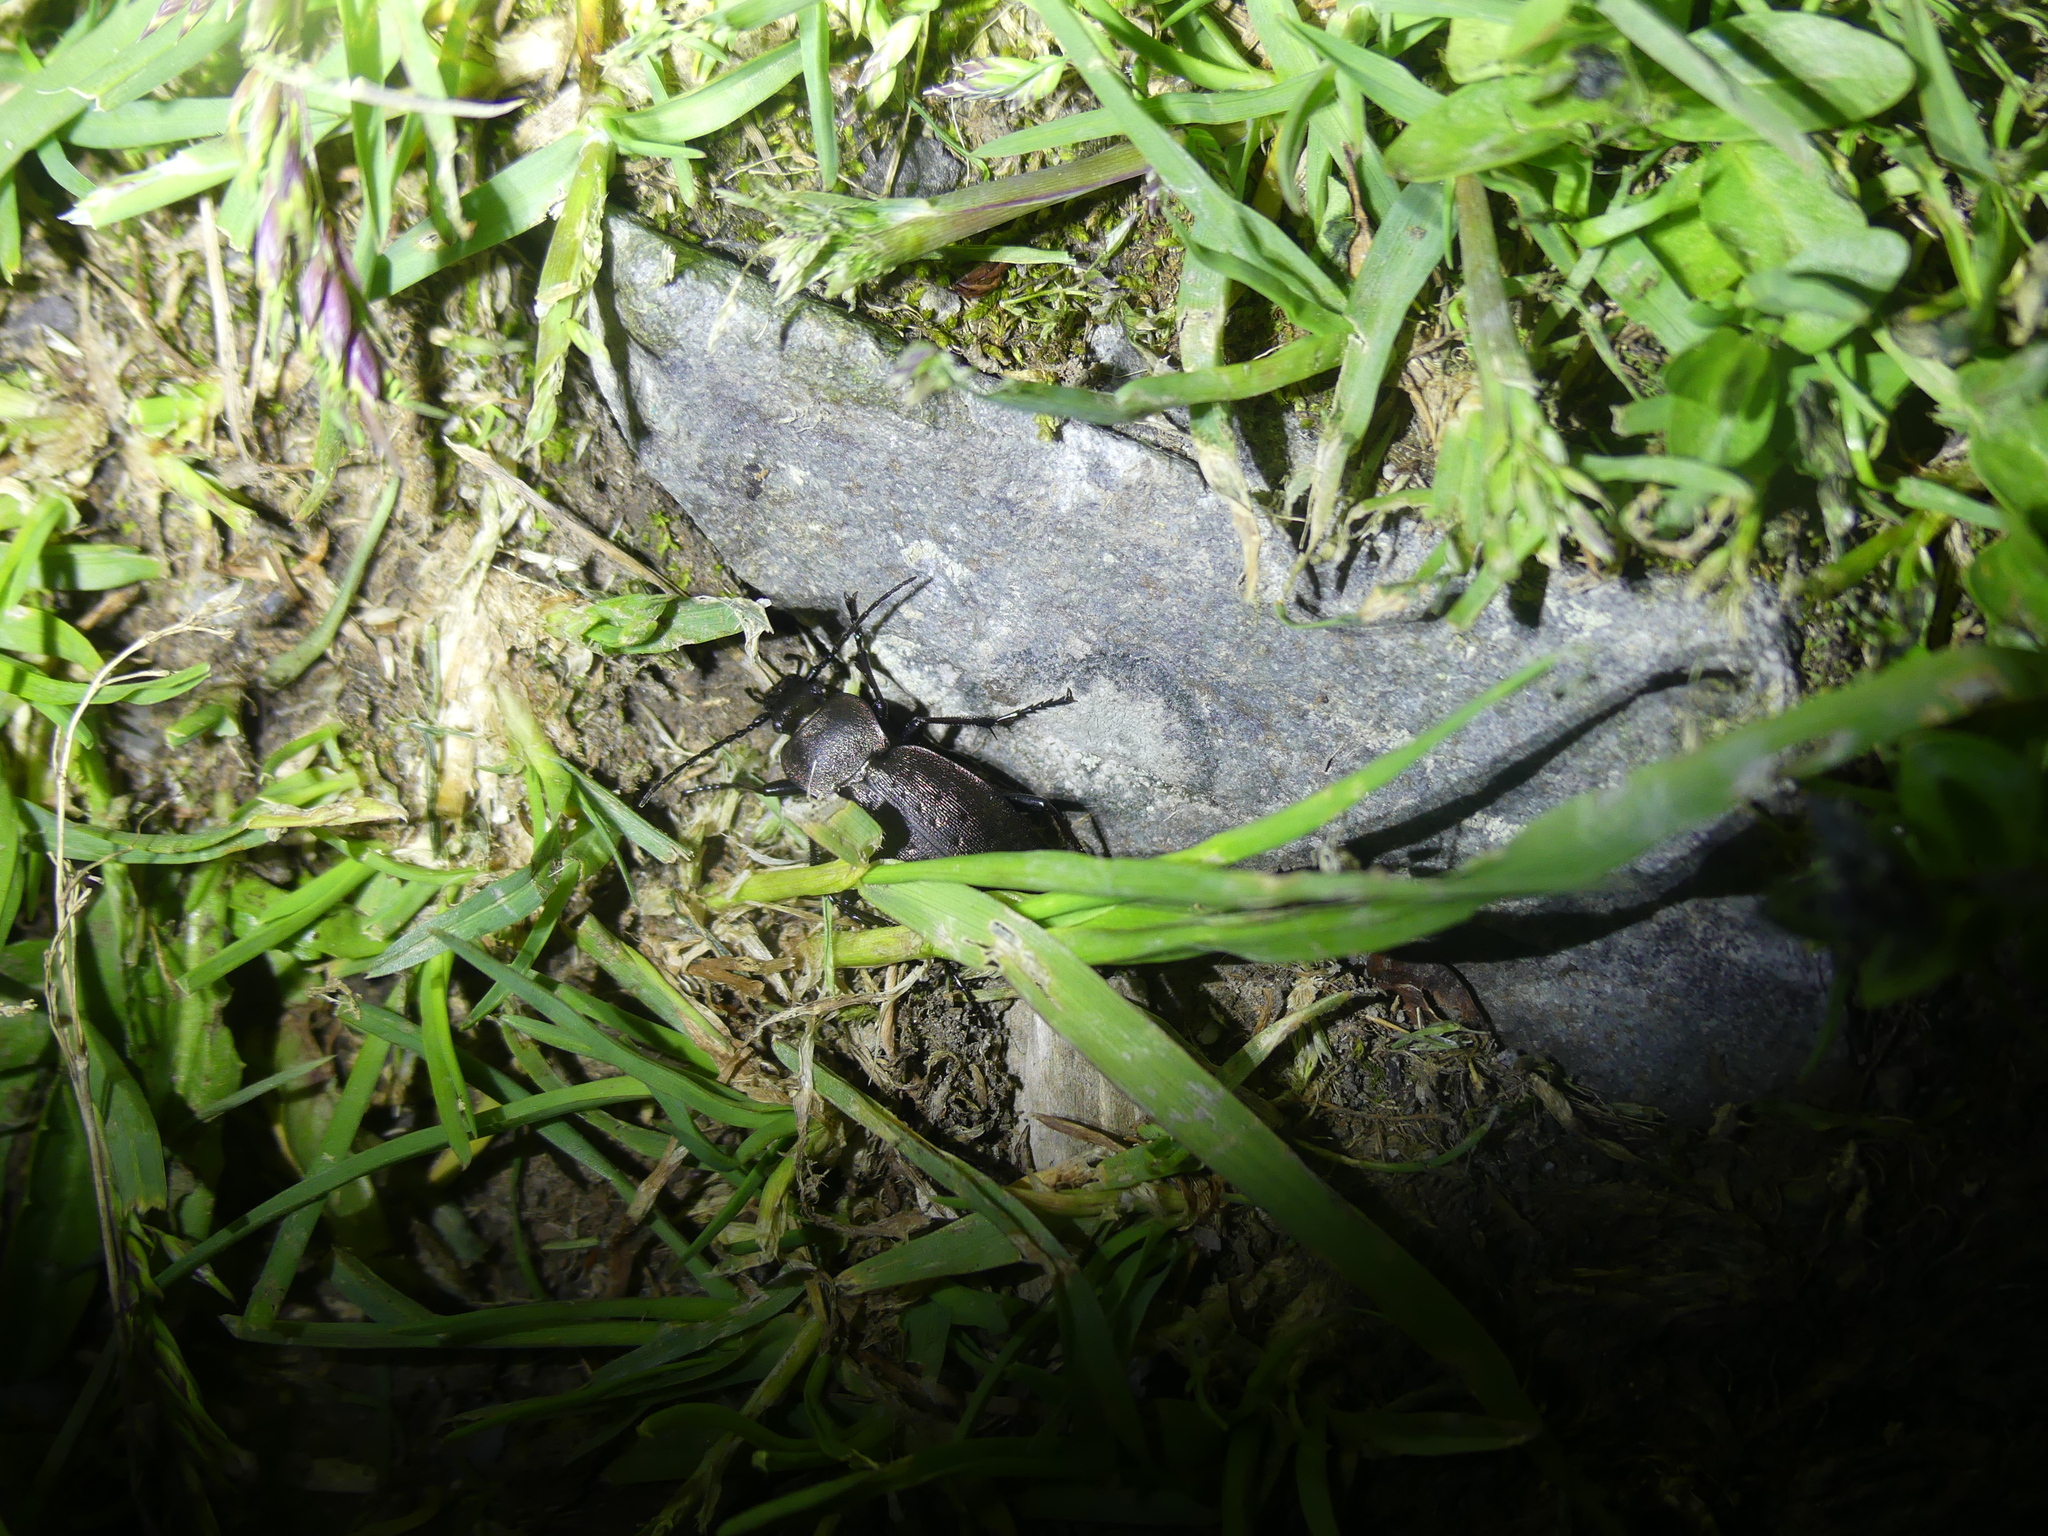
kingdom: Animalia
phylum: Arthropoda
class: Insecta
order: Coleoptera
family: Carabidae
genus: Carabus
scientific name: Carabus sylvestris
